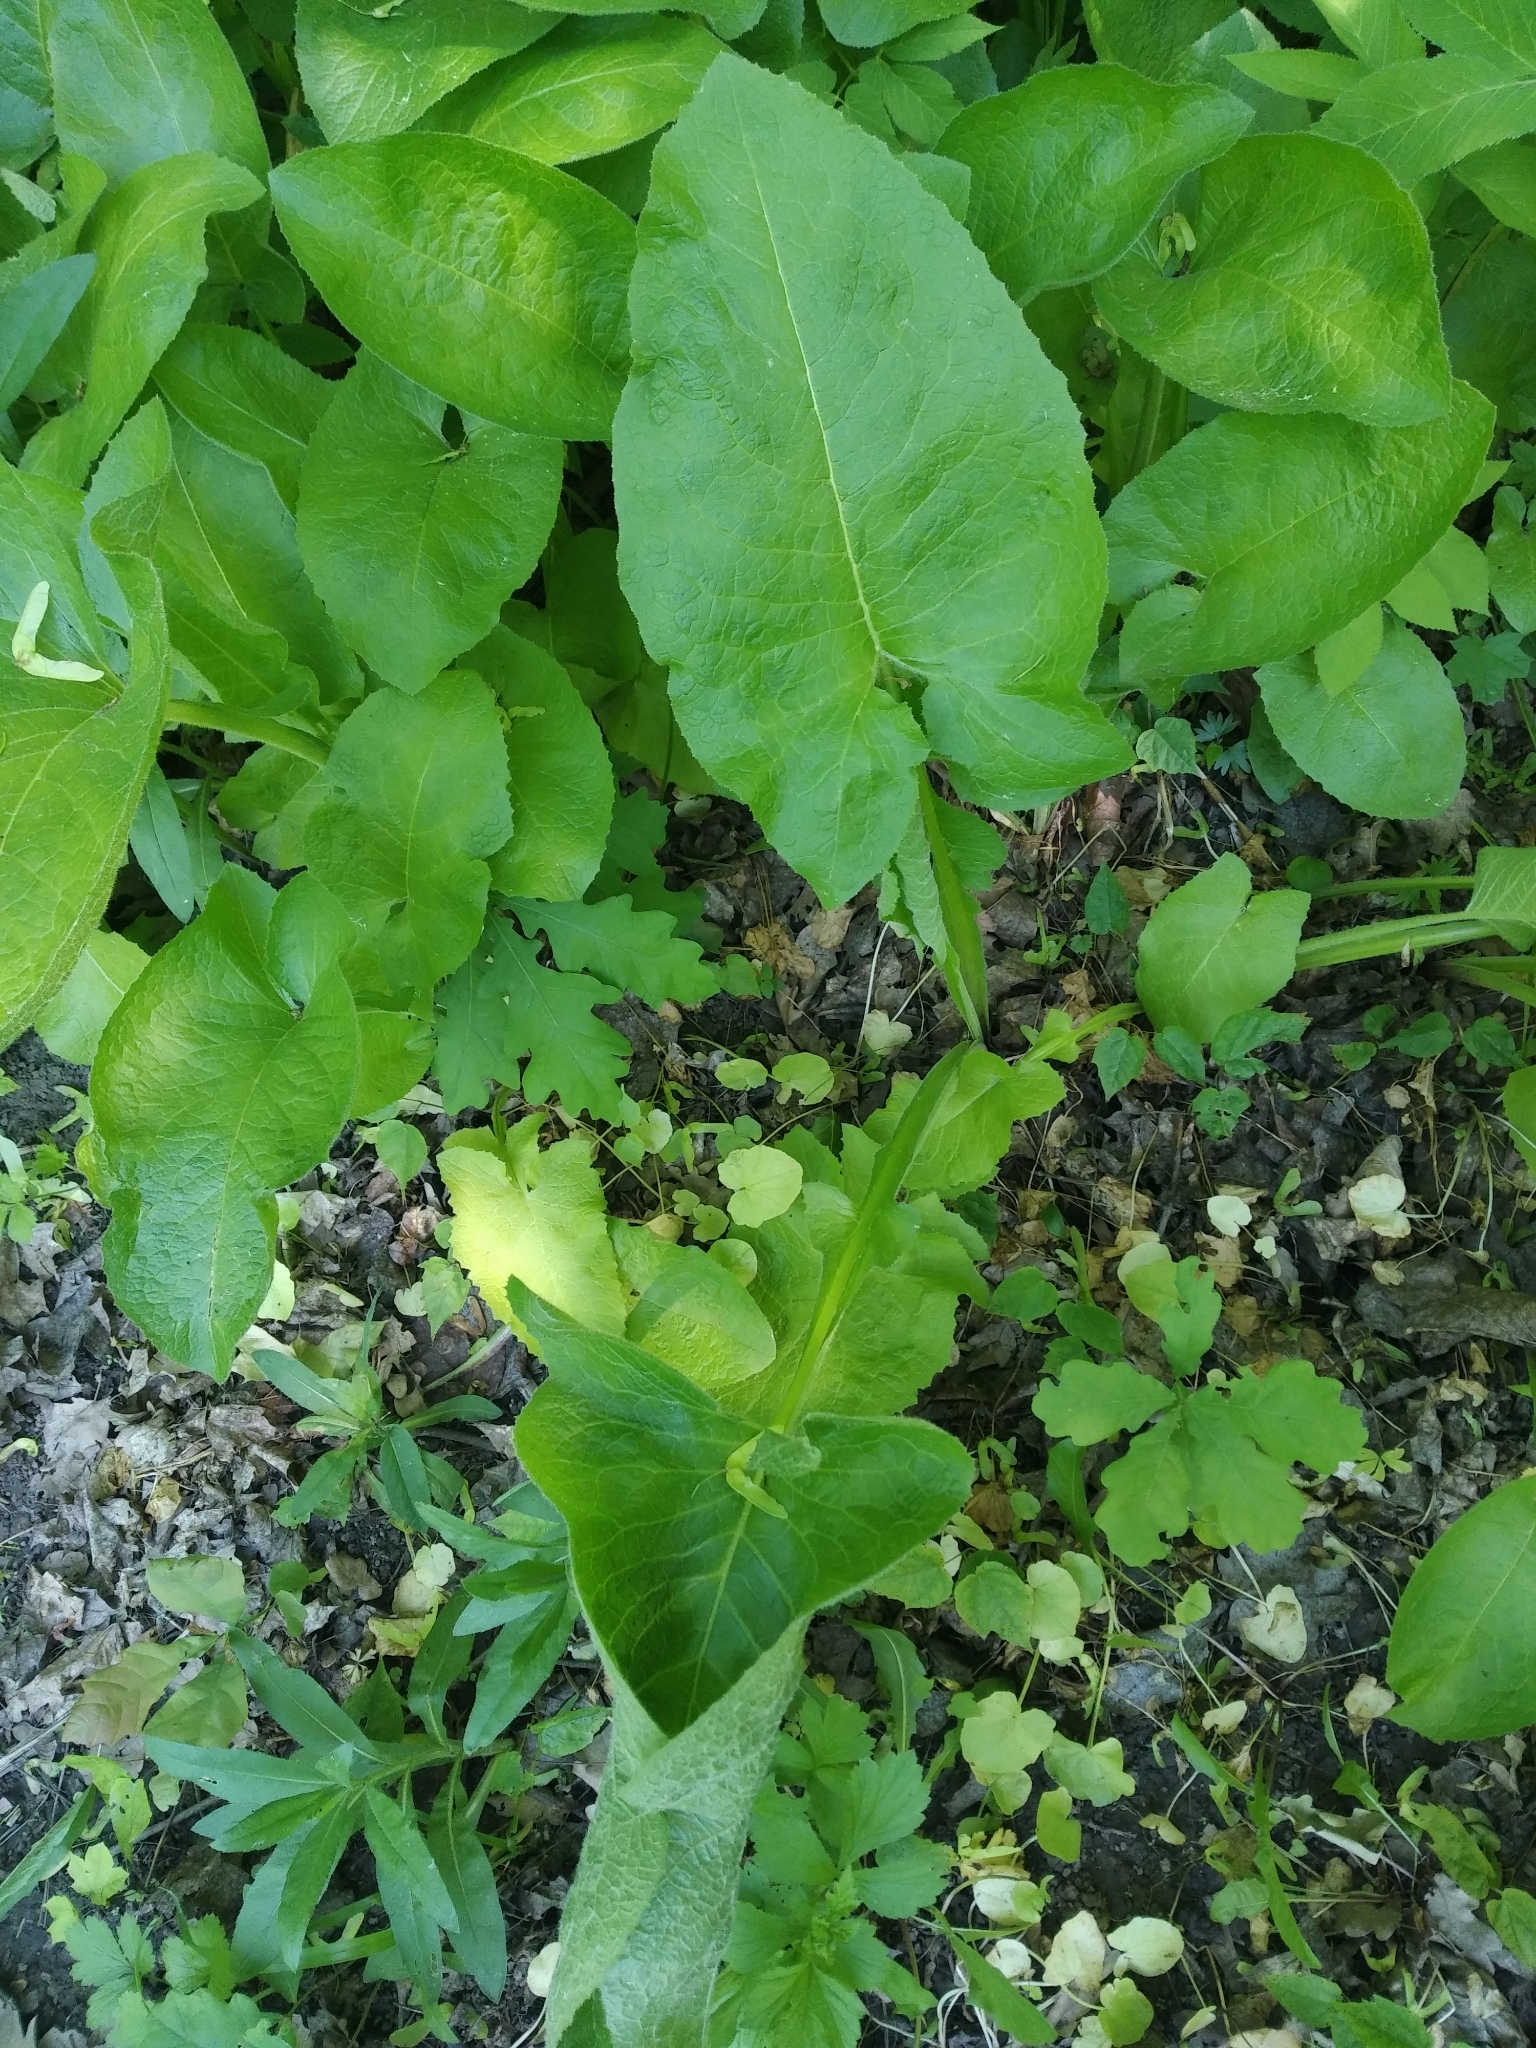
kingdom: Plantae
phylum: Tracheophyta
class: Magnoliopsida
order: Asterales
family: Asteraceae
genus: Lactuca
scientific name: Lactuca macrophylla
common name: Common blue-sow-thistle
